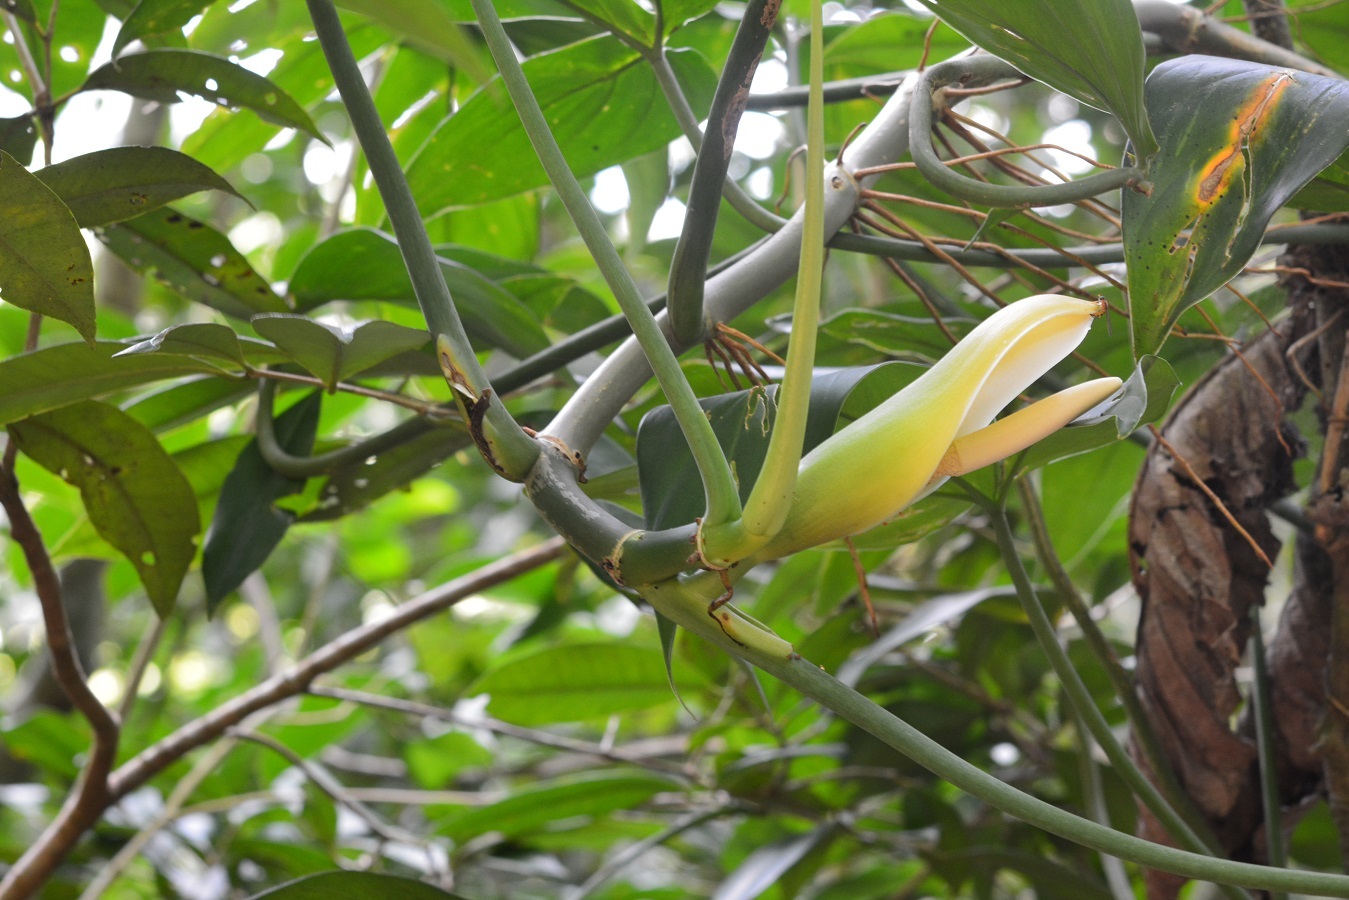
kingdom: Plantae
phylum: Tracheophyta
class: Liliopsida
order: Alismatales
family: Araceae
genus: Philodendron
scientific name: Philodendron tripartitum
